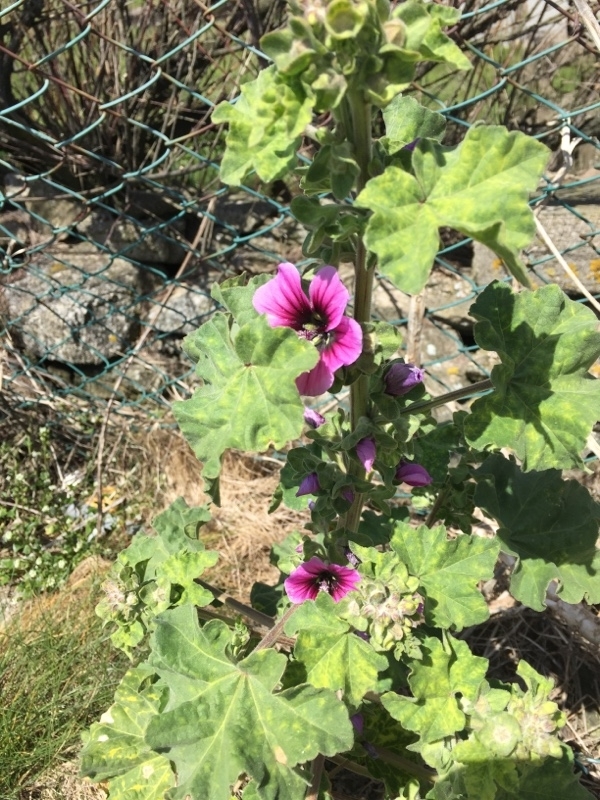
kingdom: Plantae
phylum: Tracheophyta
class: Magnoliopsida
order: Malvales
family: Malvaceae
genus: Malva
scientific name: Malva arborea
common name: Tree mallow
